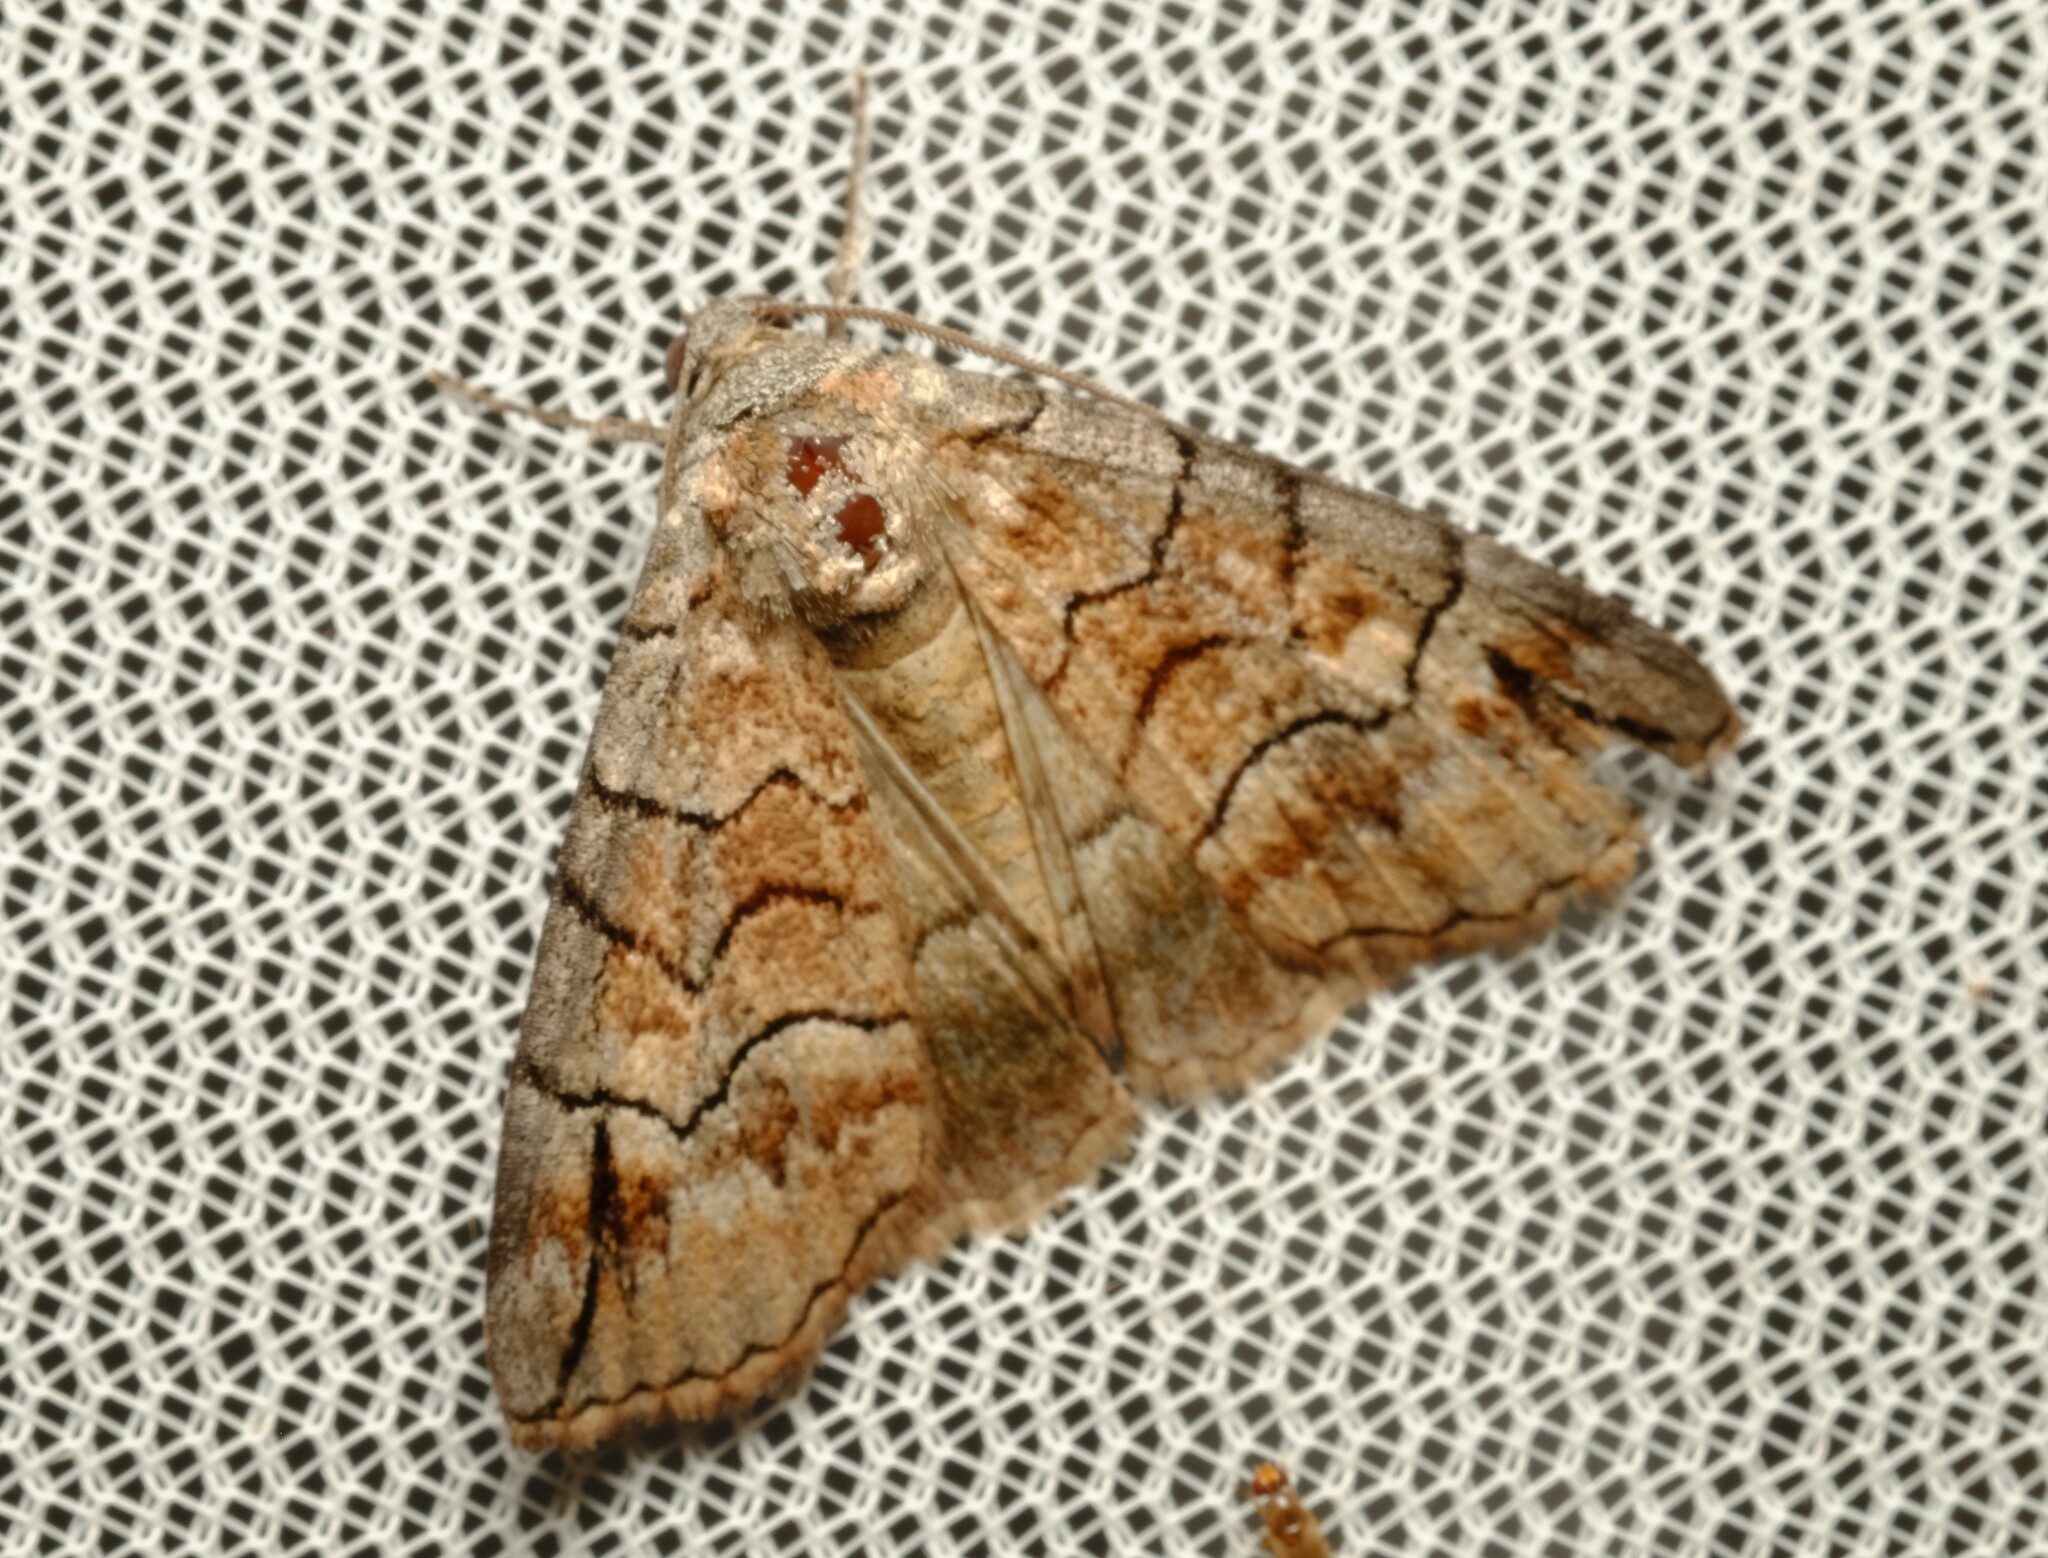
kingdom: Animalia
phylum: Arthropoda
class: Insecta
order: Lepidoptera
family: Geometridae
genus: Dysbatus
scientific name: Dysbatus stenodesma
